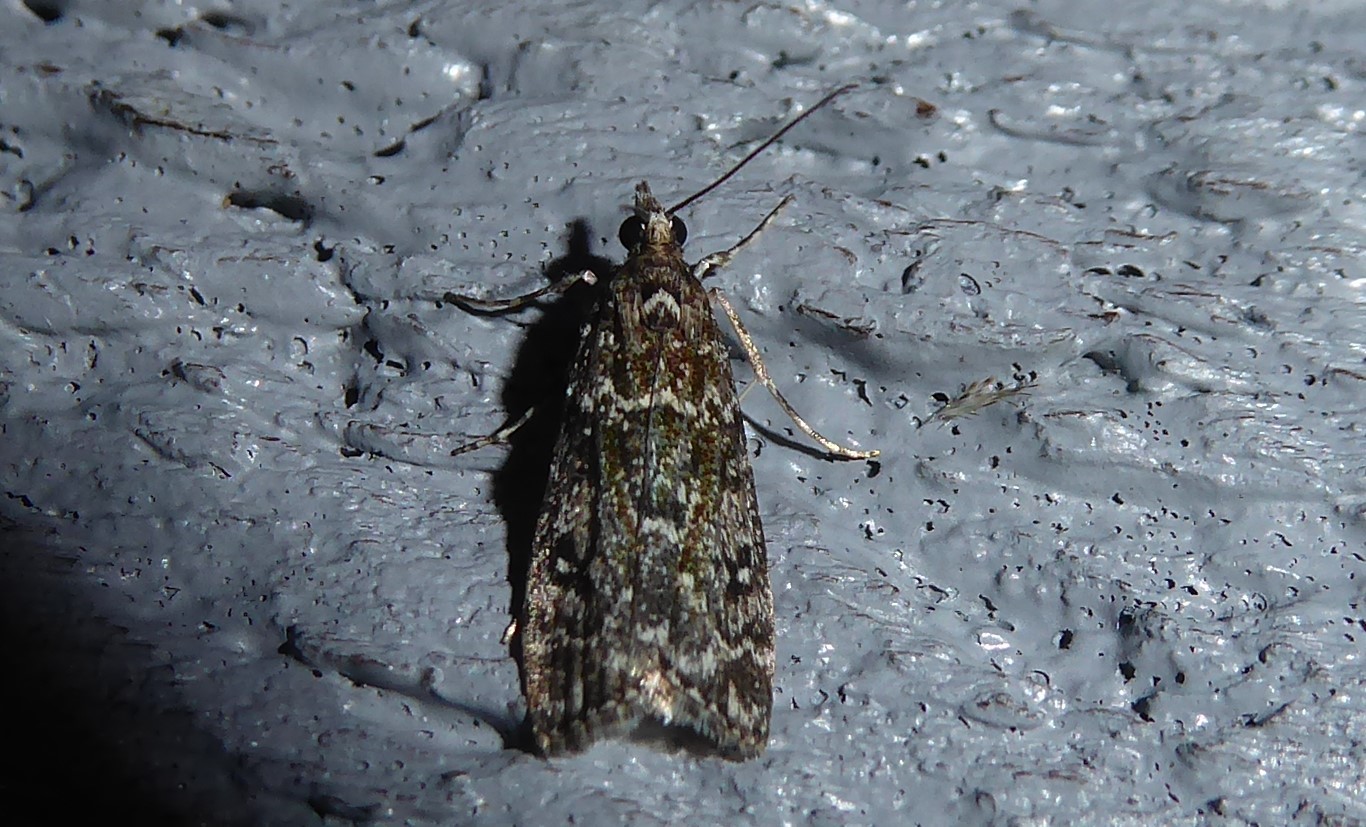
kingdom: Animalia
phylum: Arthropoda
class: Insecta
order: Lepidoptera
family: Crambidae
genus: Eudonia
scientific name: Eudonia philerga
